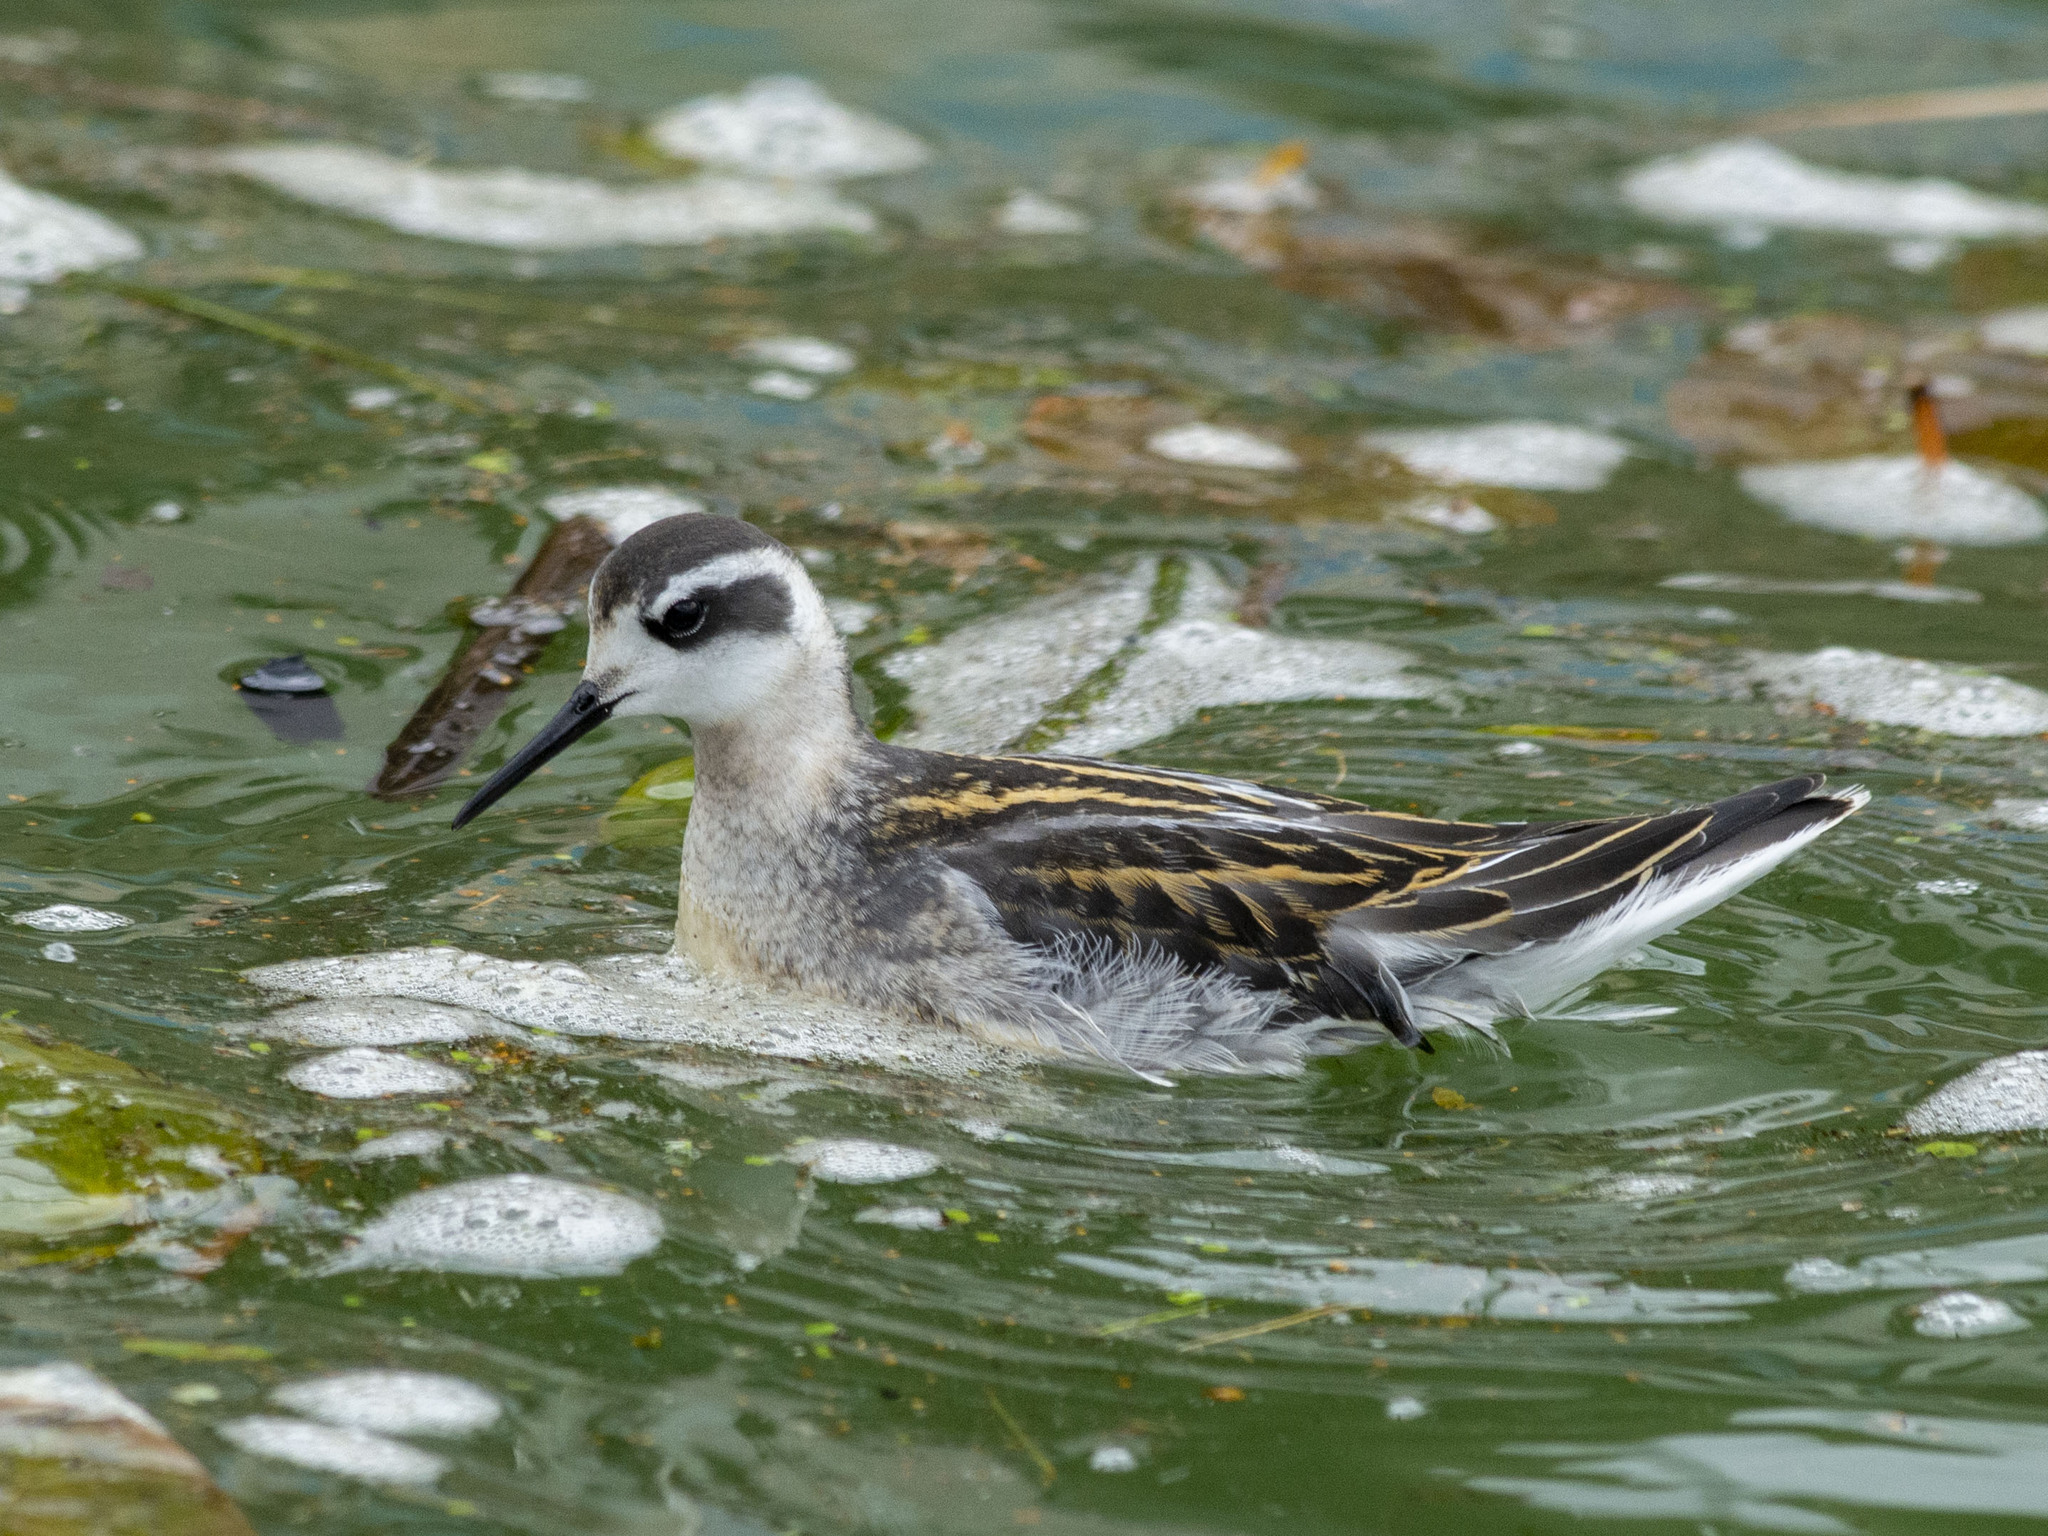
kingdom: Animalia
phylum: Chordata
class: Aves
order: Charadriiformes
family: Scolopacidae
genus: Phalaropus
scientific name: Phalaropus lobatus
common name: Red-necked phalarope
